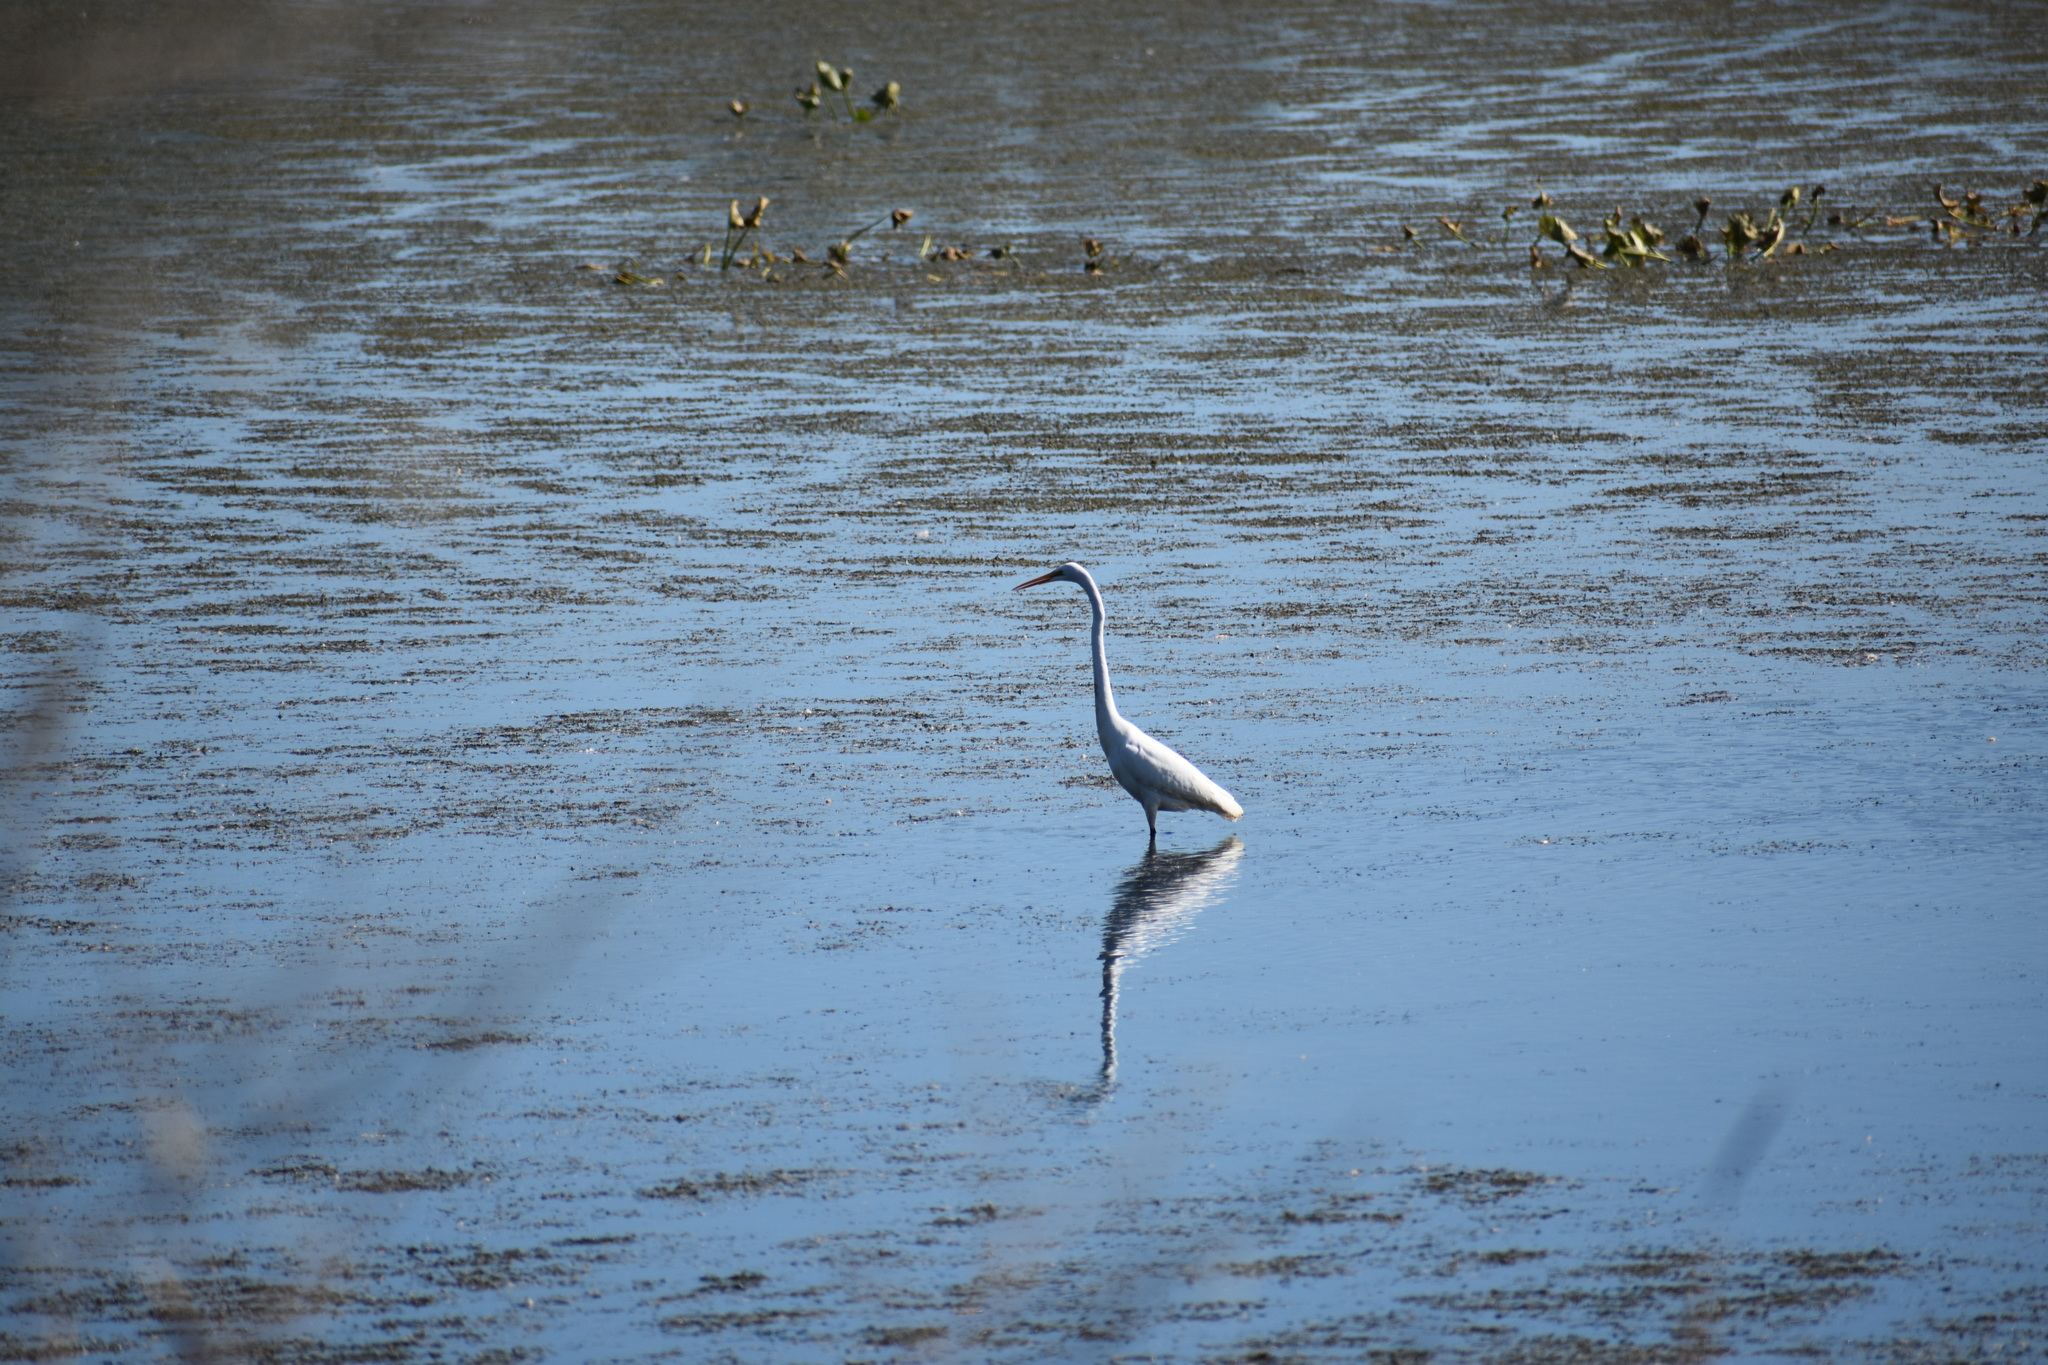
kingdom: Animalia
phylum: Chordata
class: Aves
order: Pelecaniformes
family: Ardeidae
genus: Ardea
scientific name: Ardea alba
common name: Great egret
